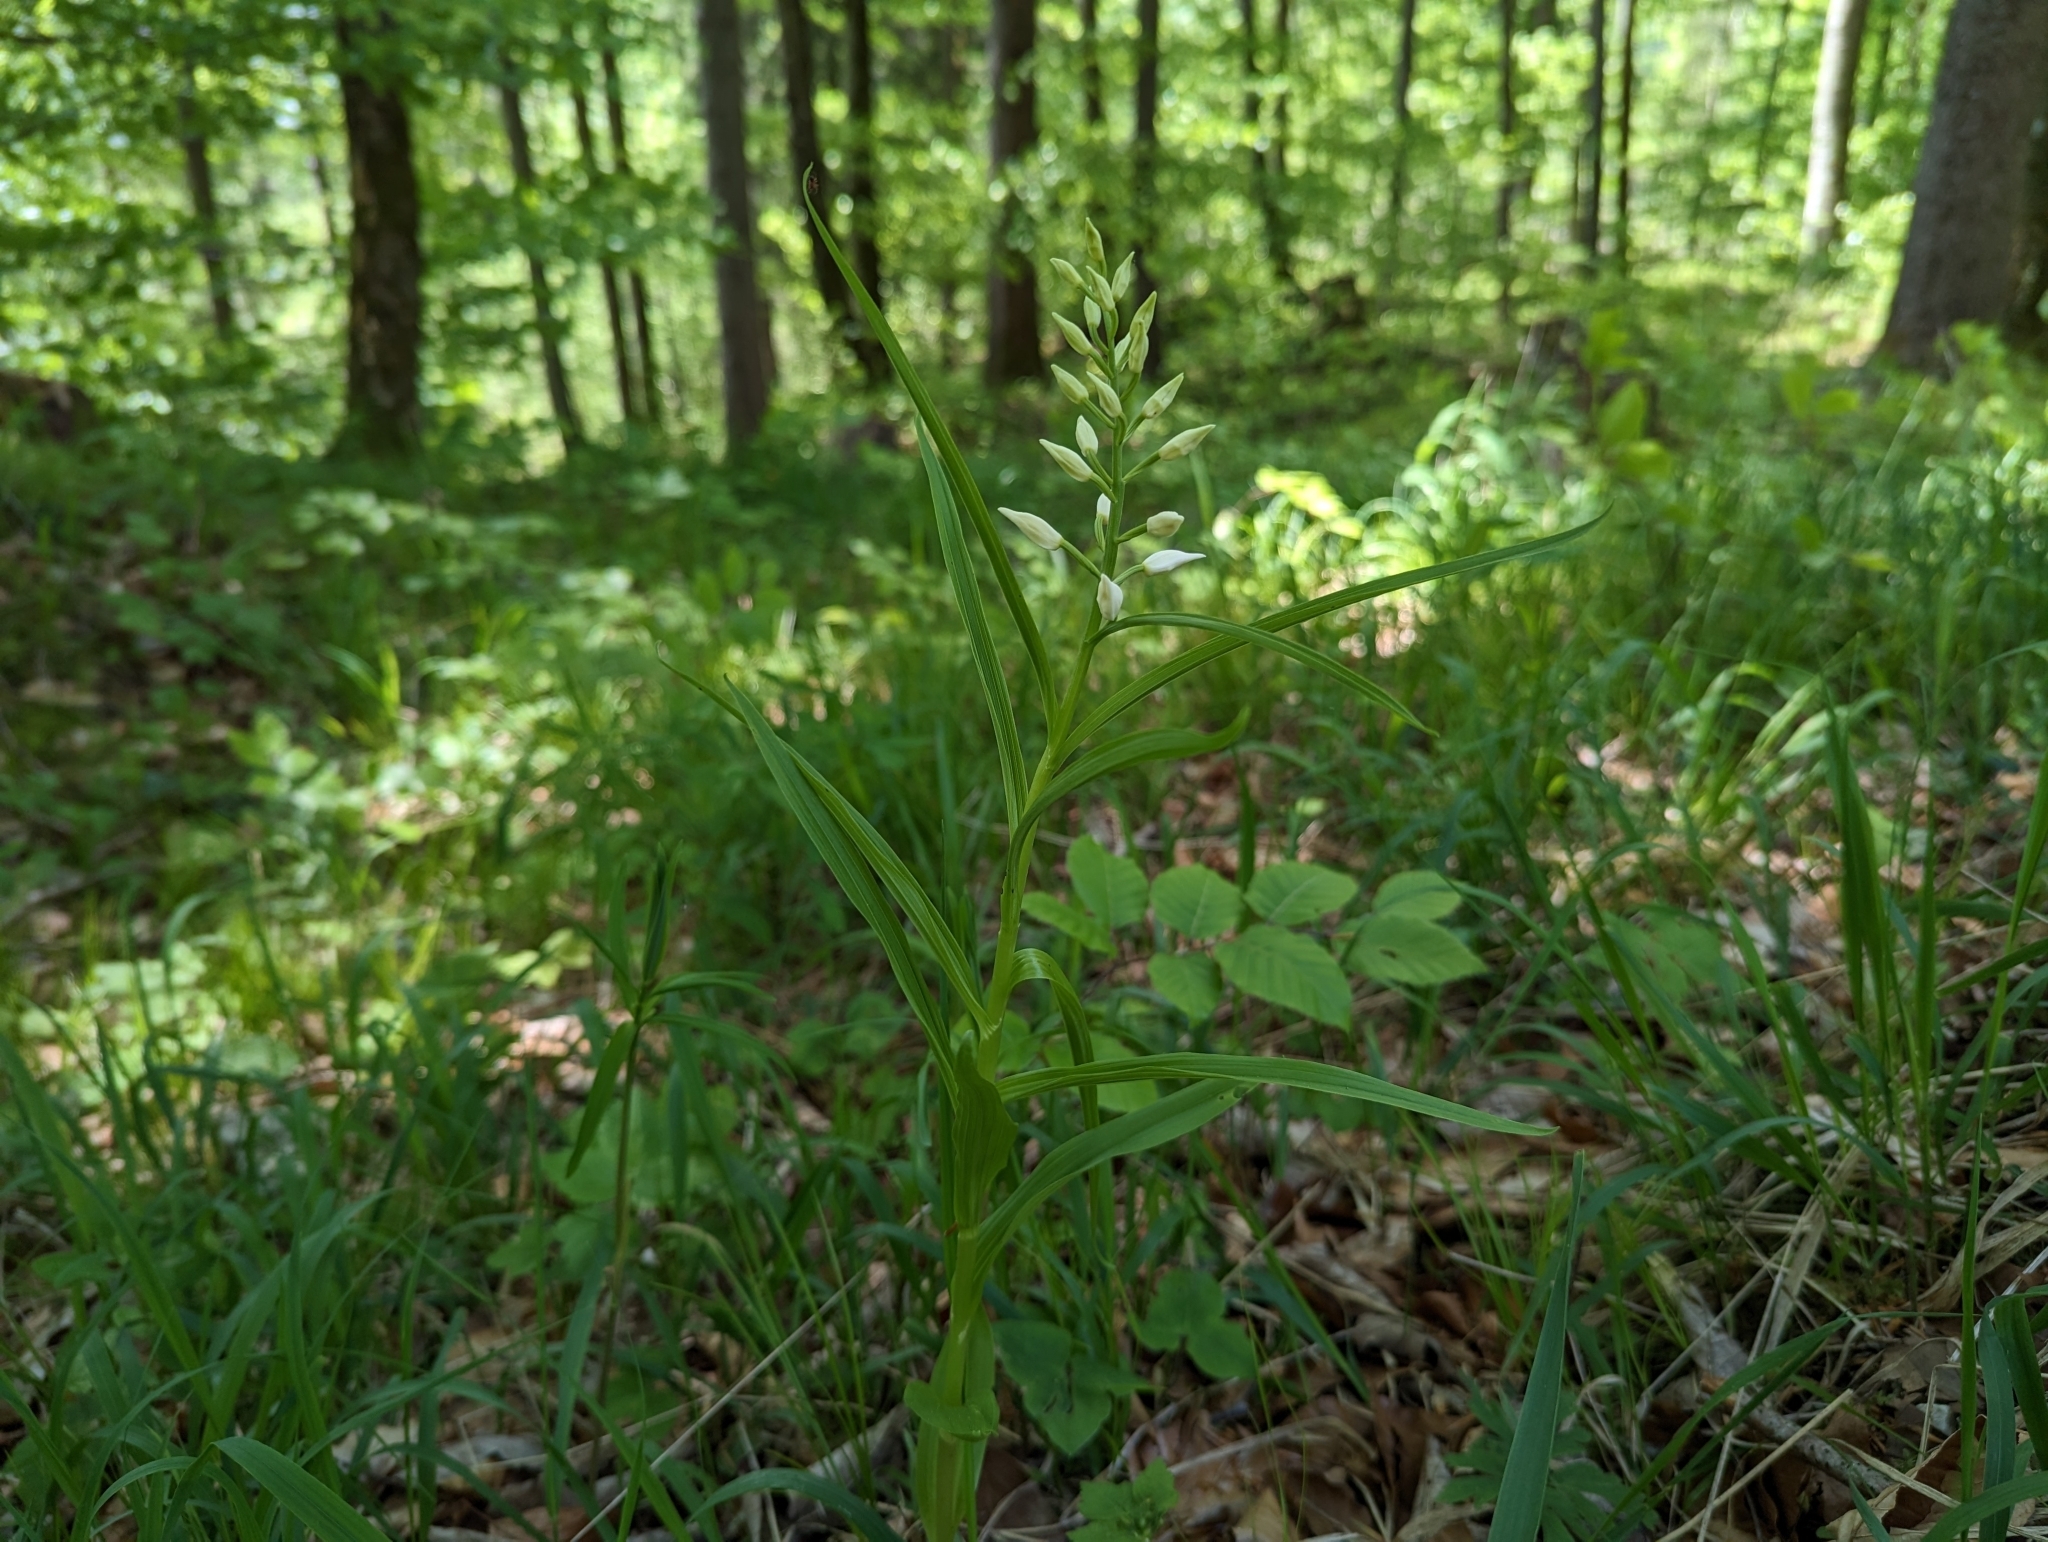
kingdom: Plantae
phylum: Tracheophyta
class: Liliopsida
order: Asparagales
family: Orchidaceae
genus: Cephalanthera
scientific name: Cephalanthera longifolia
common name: Narrow-leaved helleborine
